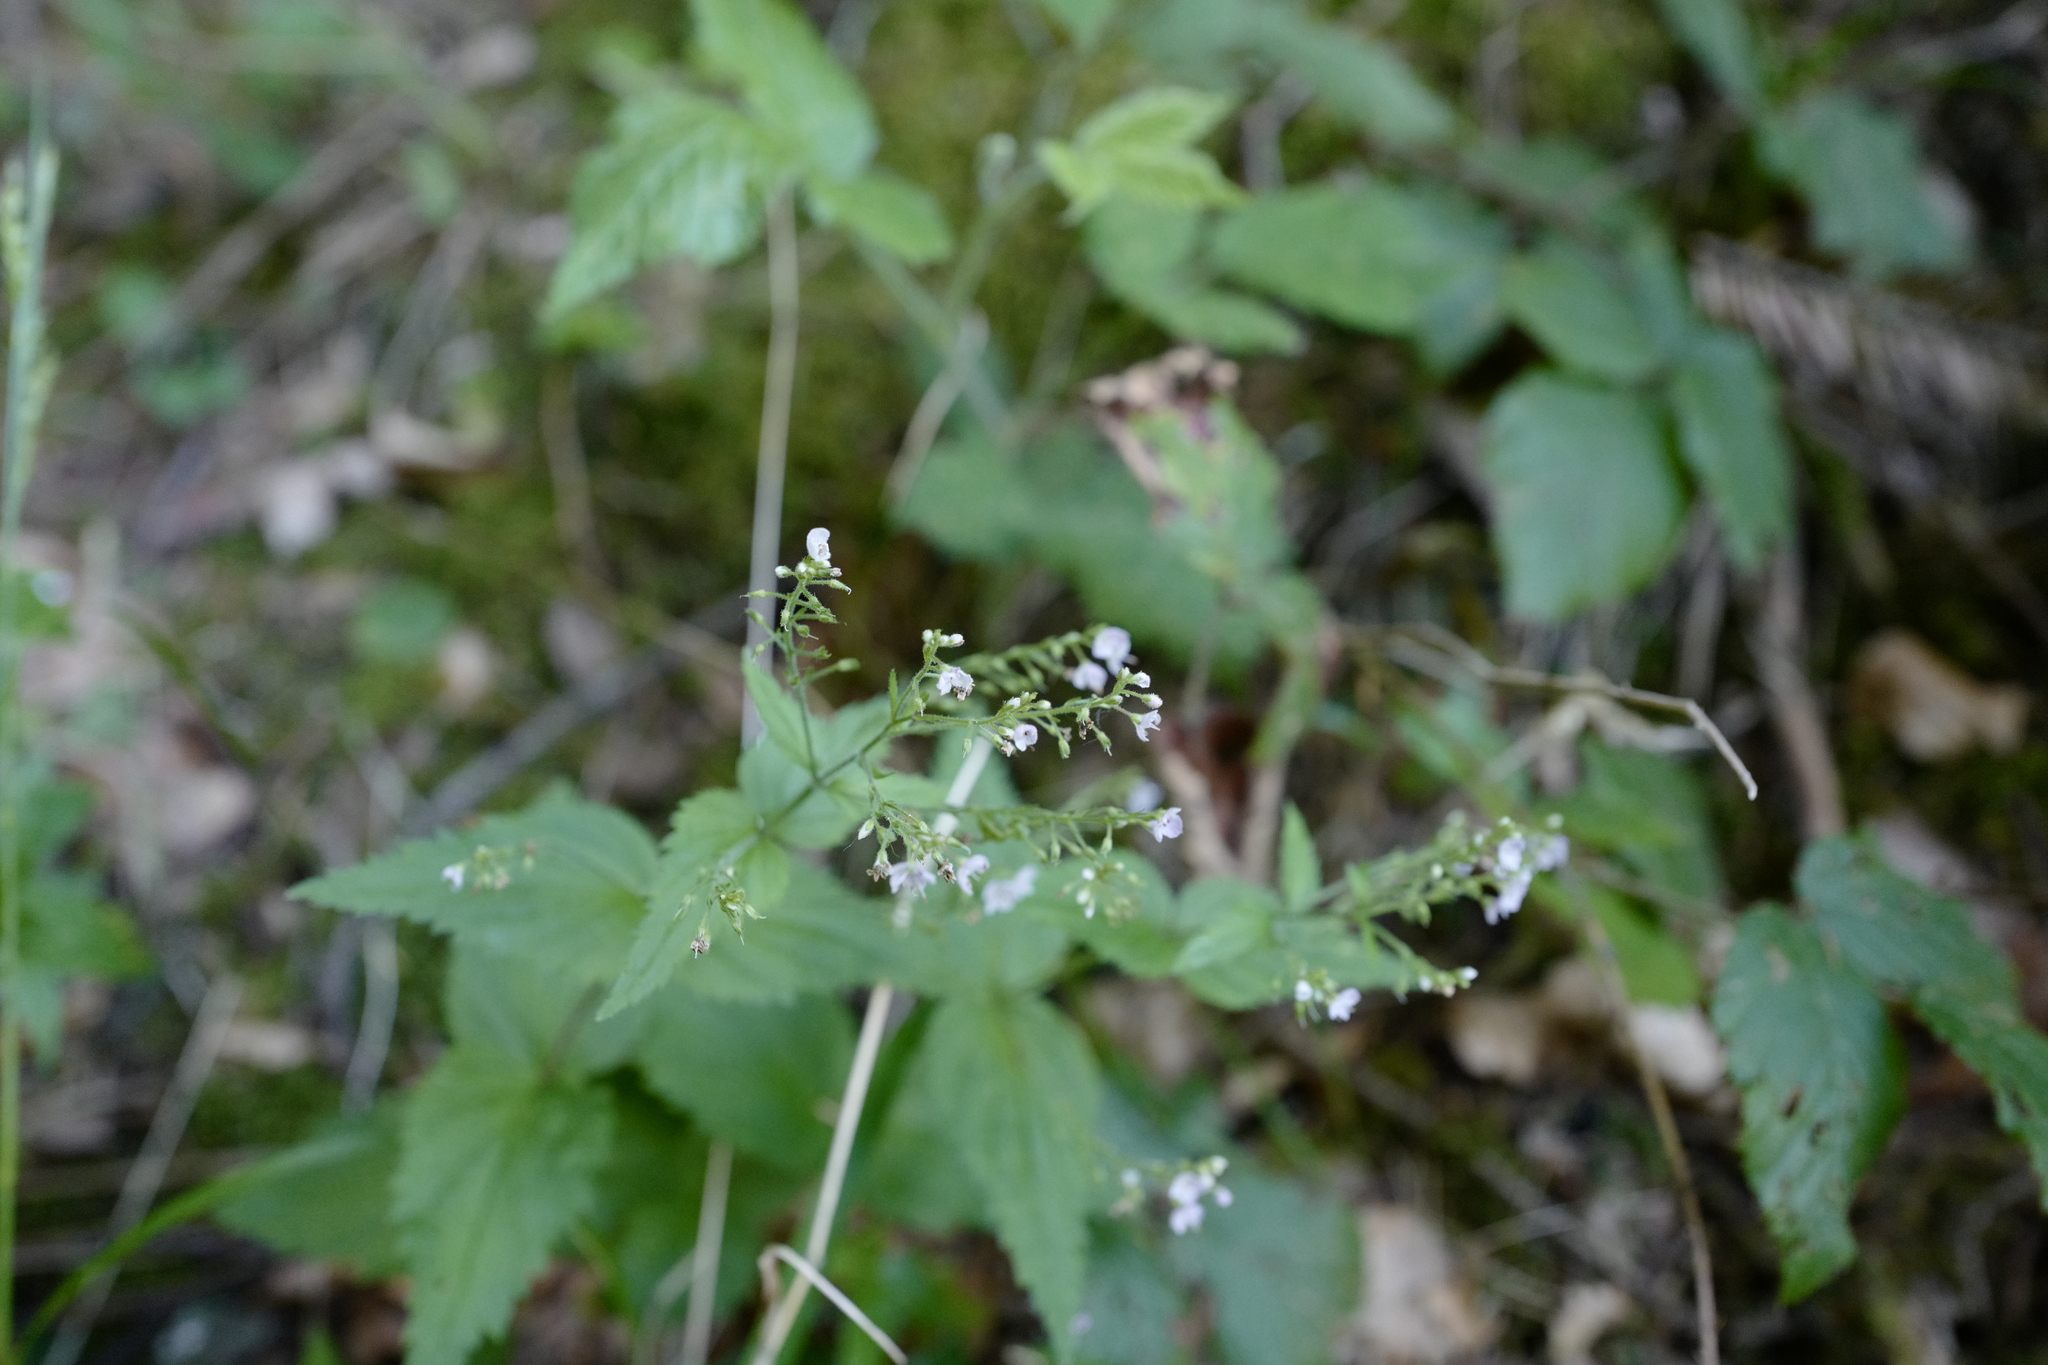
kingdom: Plantae
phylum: Tracheophyta
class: Magnoliopsida
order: Lamiales
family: Plantaginaceae
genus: Veronica
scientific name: Veronica urticifolia
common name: Nettle-leaf speedwell
